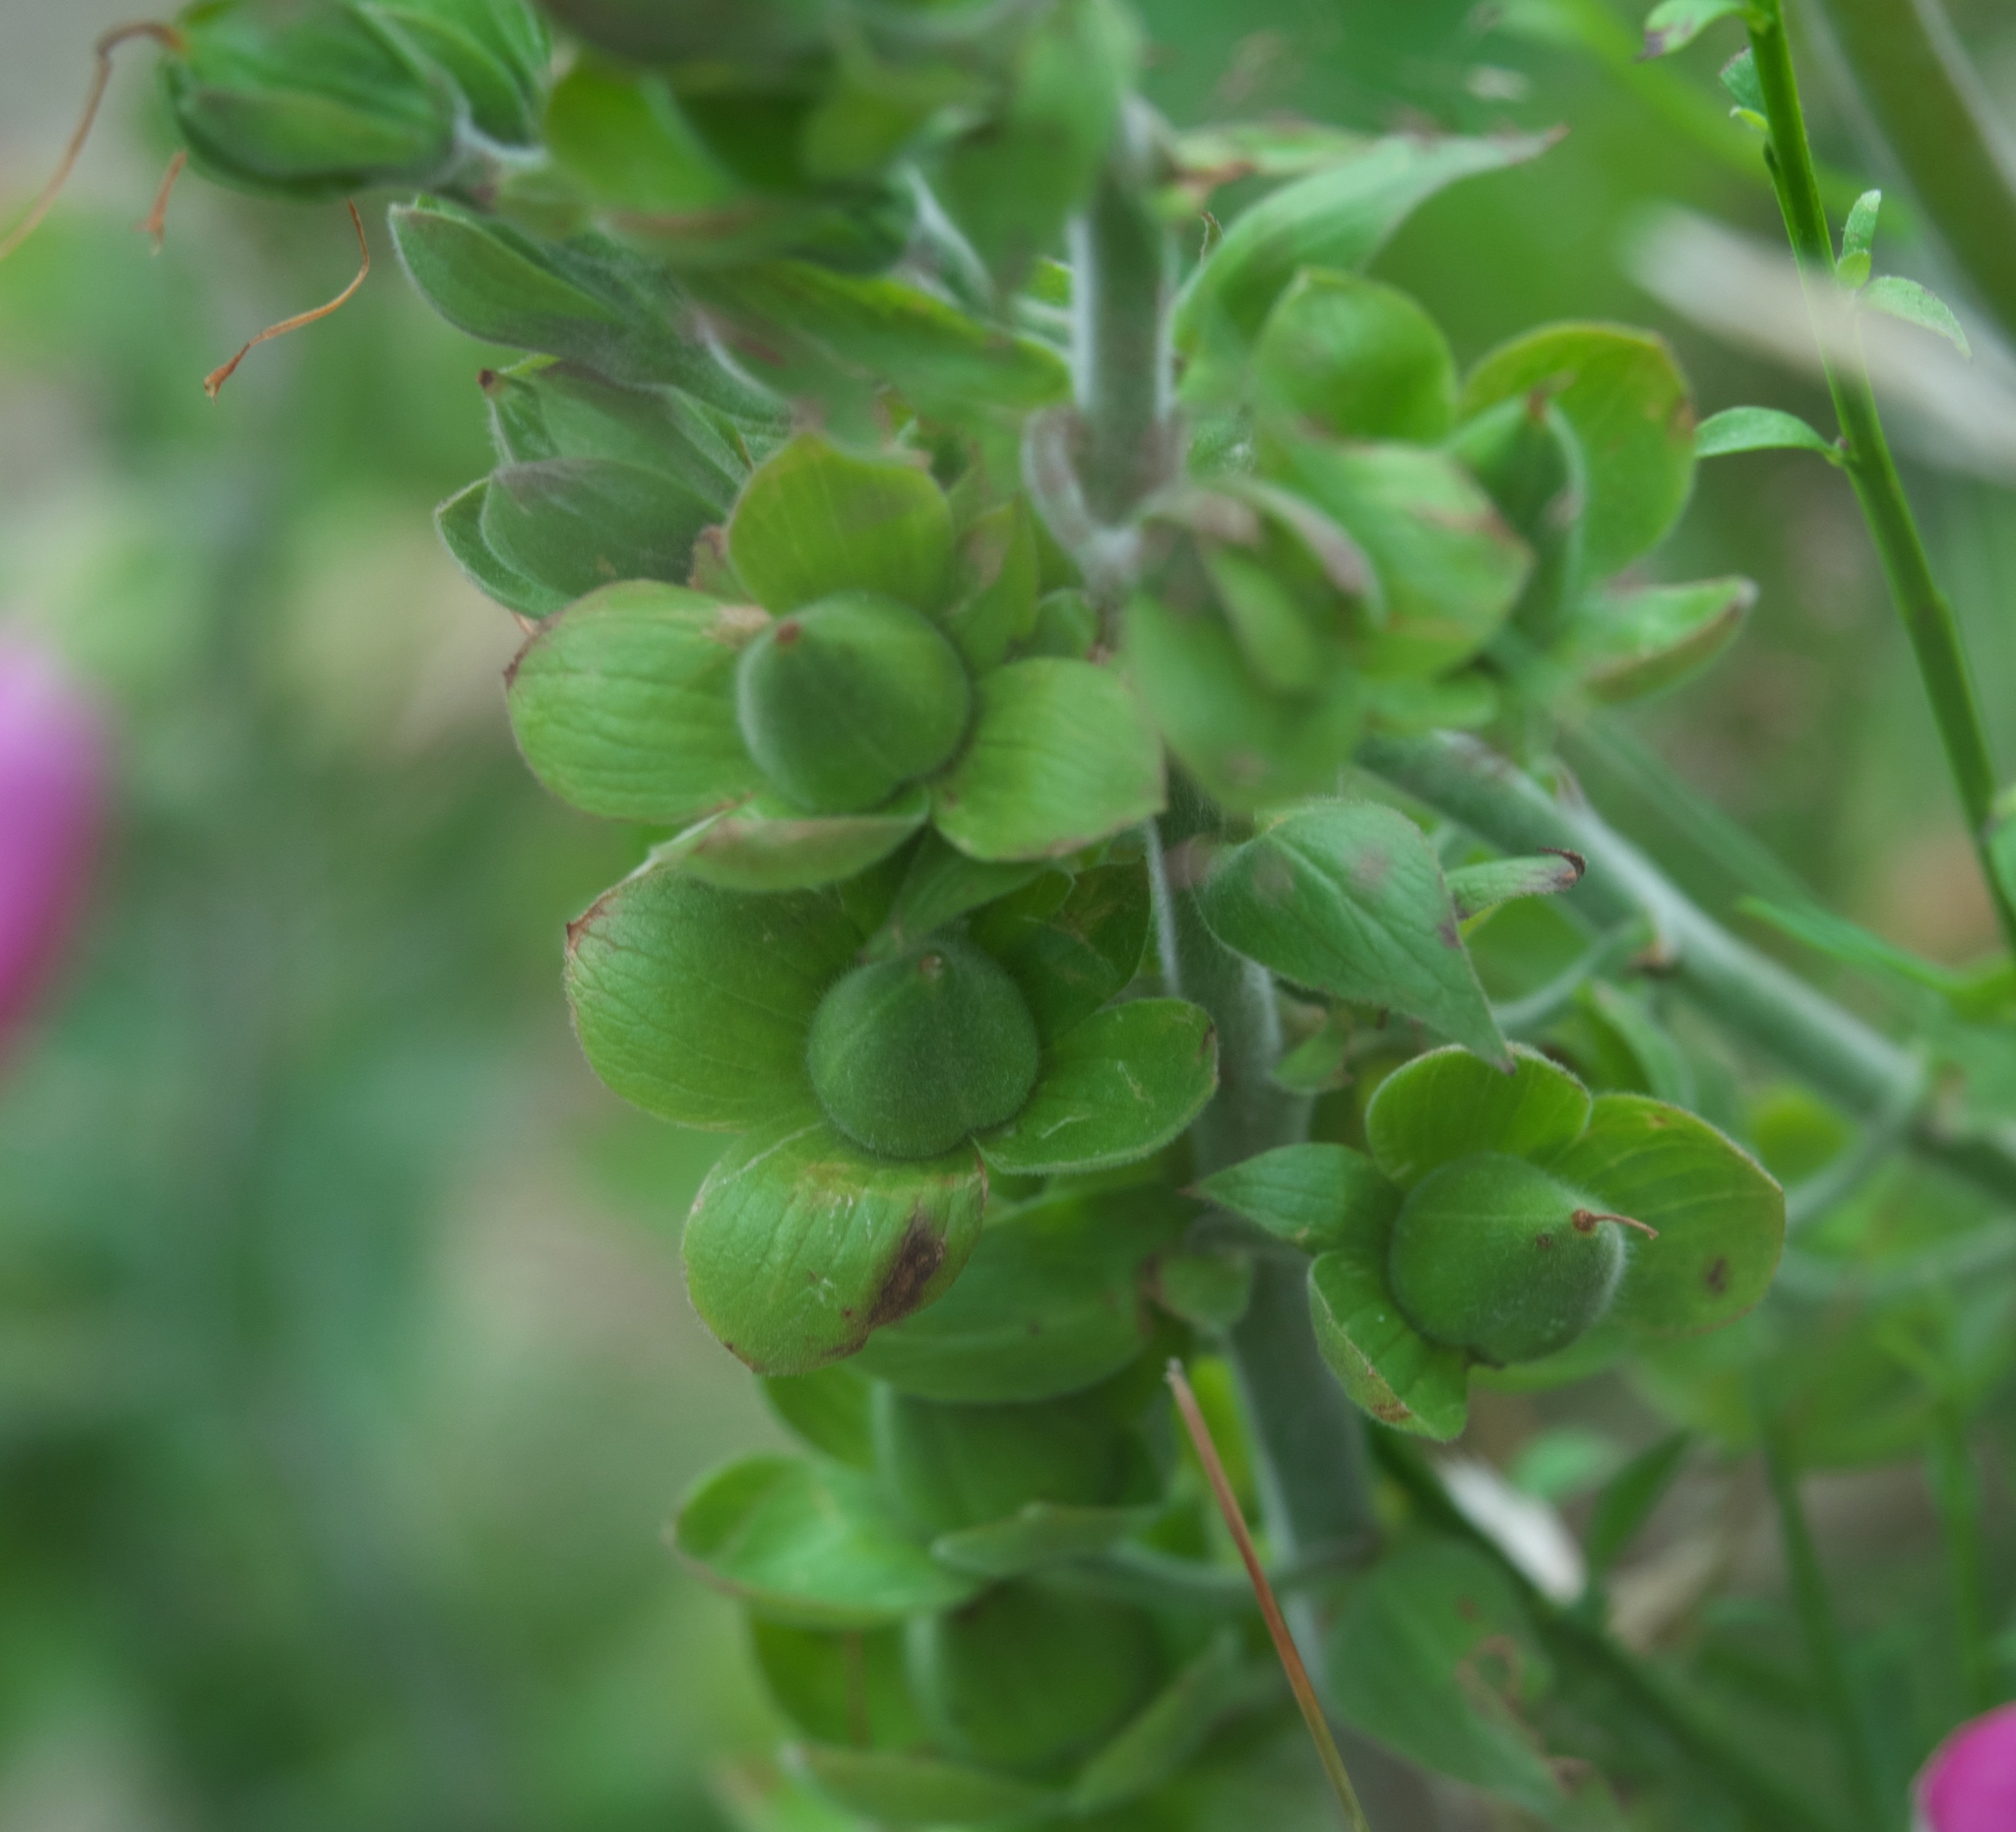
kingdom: Plantae
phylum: Tracheophyta
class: Magnoliopsida
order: Lamiales
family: Plantaginaceae
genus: Digitalis
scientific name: Digitalis purpurea
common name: Foxglove
